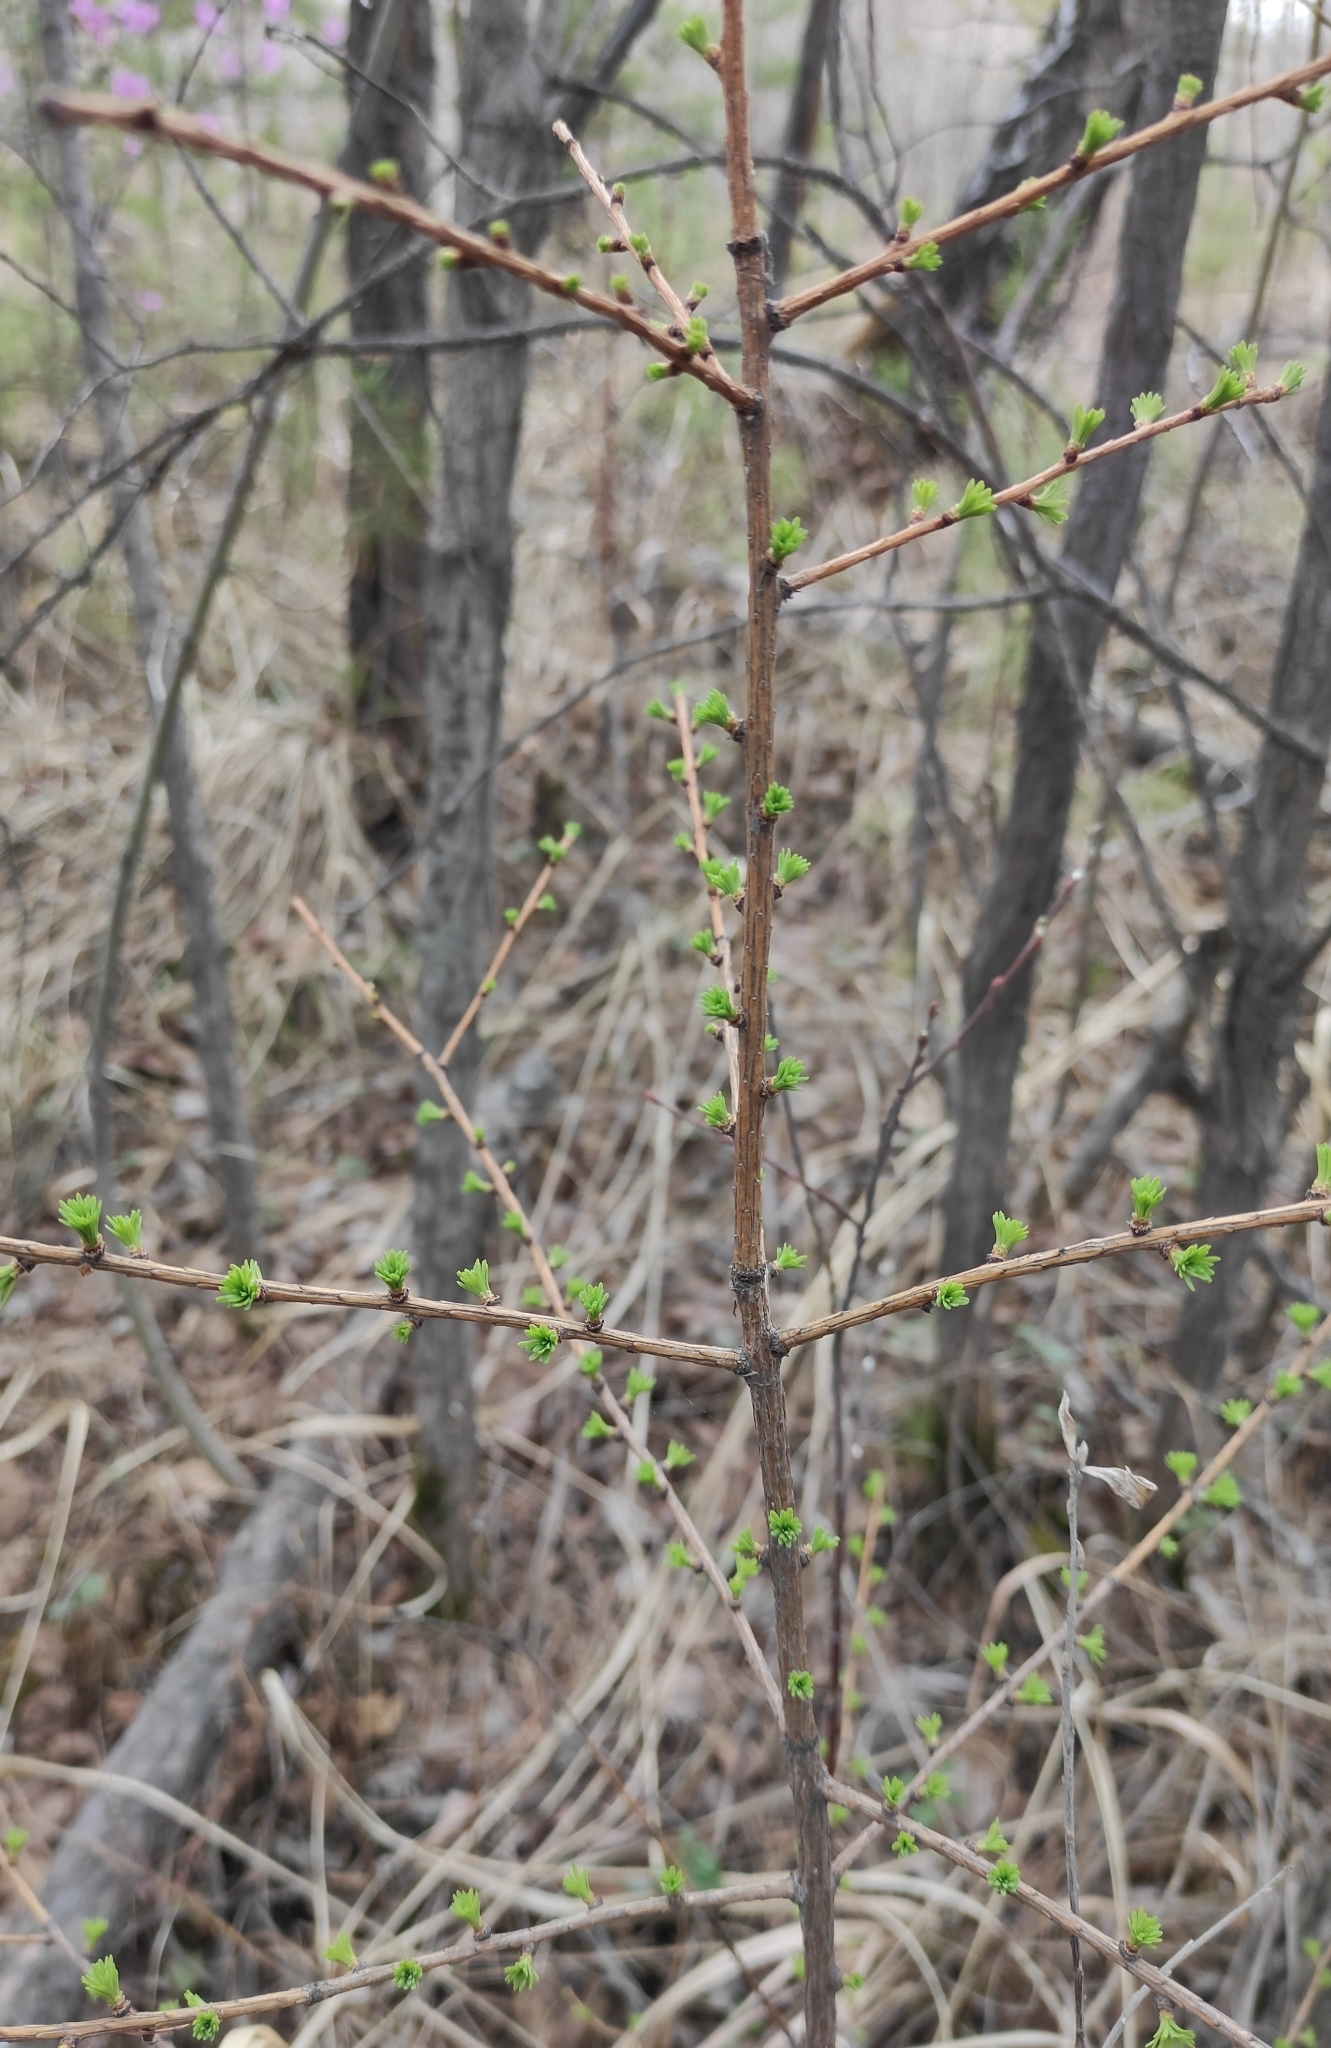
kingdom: Plantae
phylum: Tracheophyta
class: Pinopsida
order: Pinales
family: Pinaceae
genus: Larix
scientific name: Larix sibirica
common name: Siberian larch
